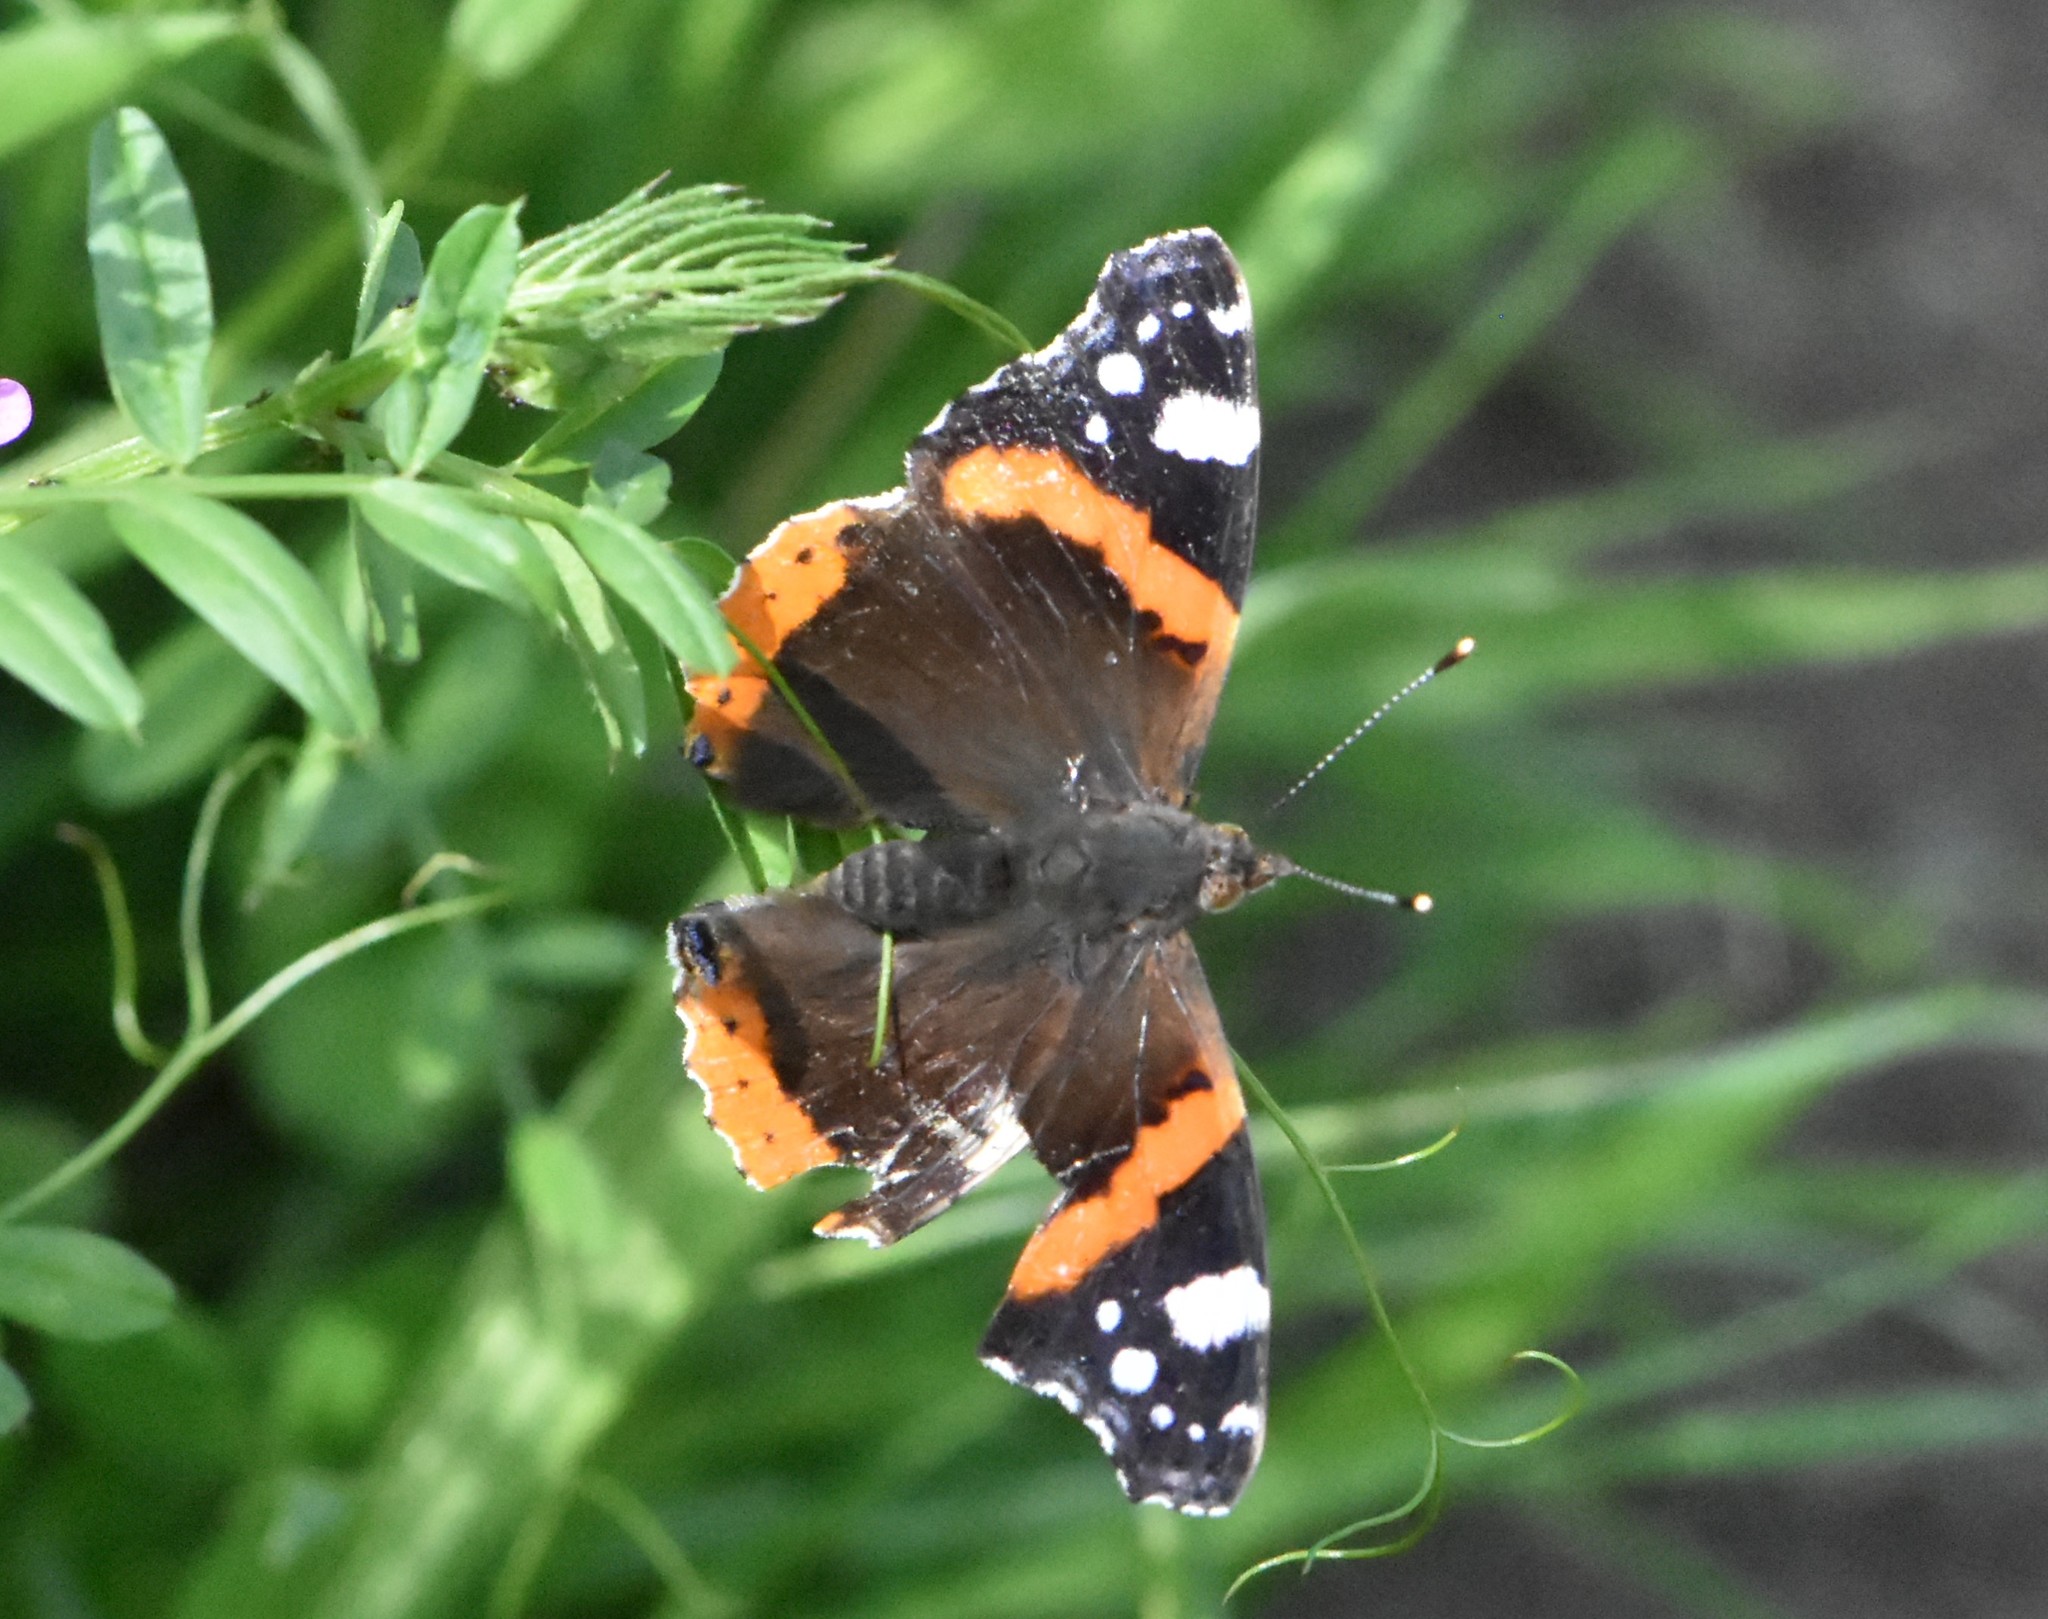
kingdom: Animalia
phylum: Arthropoda
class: Insecta
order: Lepidoptera
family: Nymphalidae
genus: Vanessa
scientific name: Vanessa atalanta
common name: Red admiral
